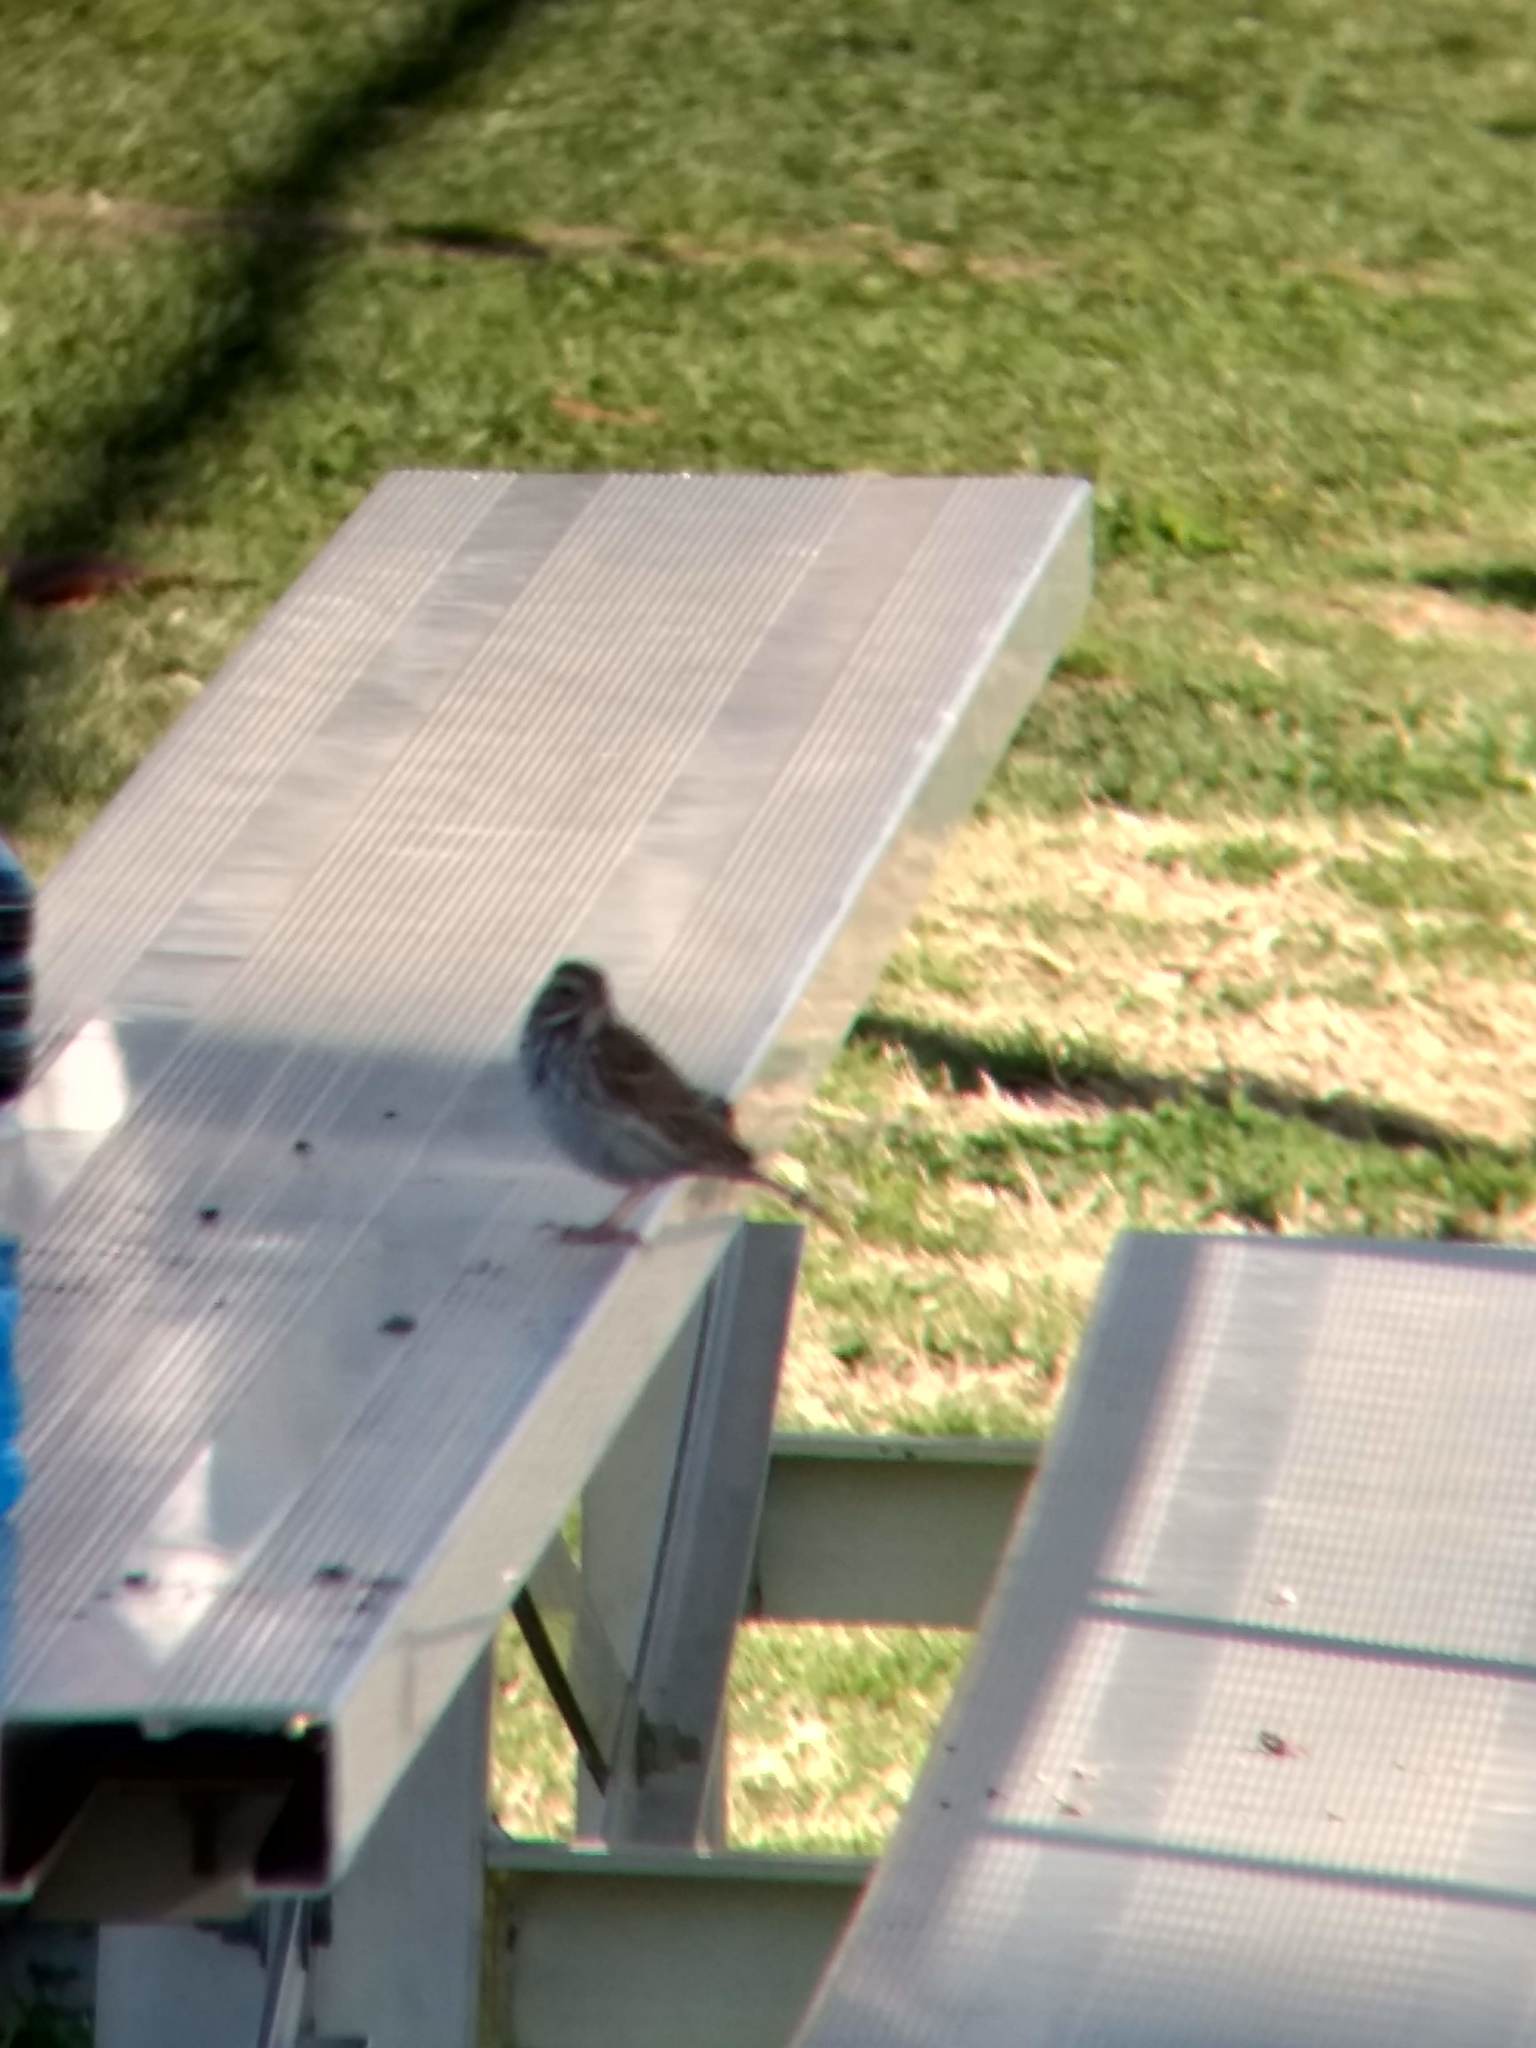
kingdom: Animalia
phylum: Chordata
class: Aves
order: Passeriformes
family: Passerellidae
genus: Passerculus
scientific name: Passerculus sandwichensis
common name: Savannah sparrow
